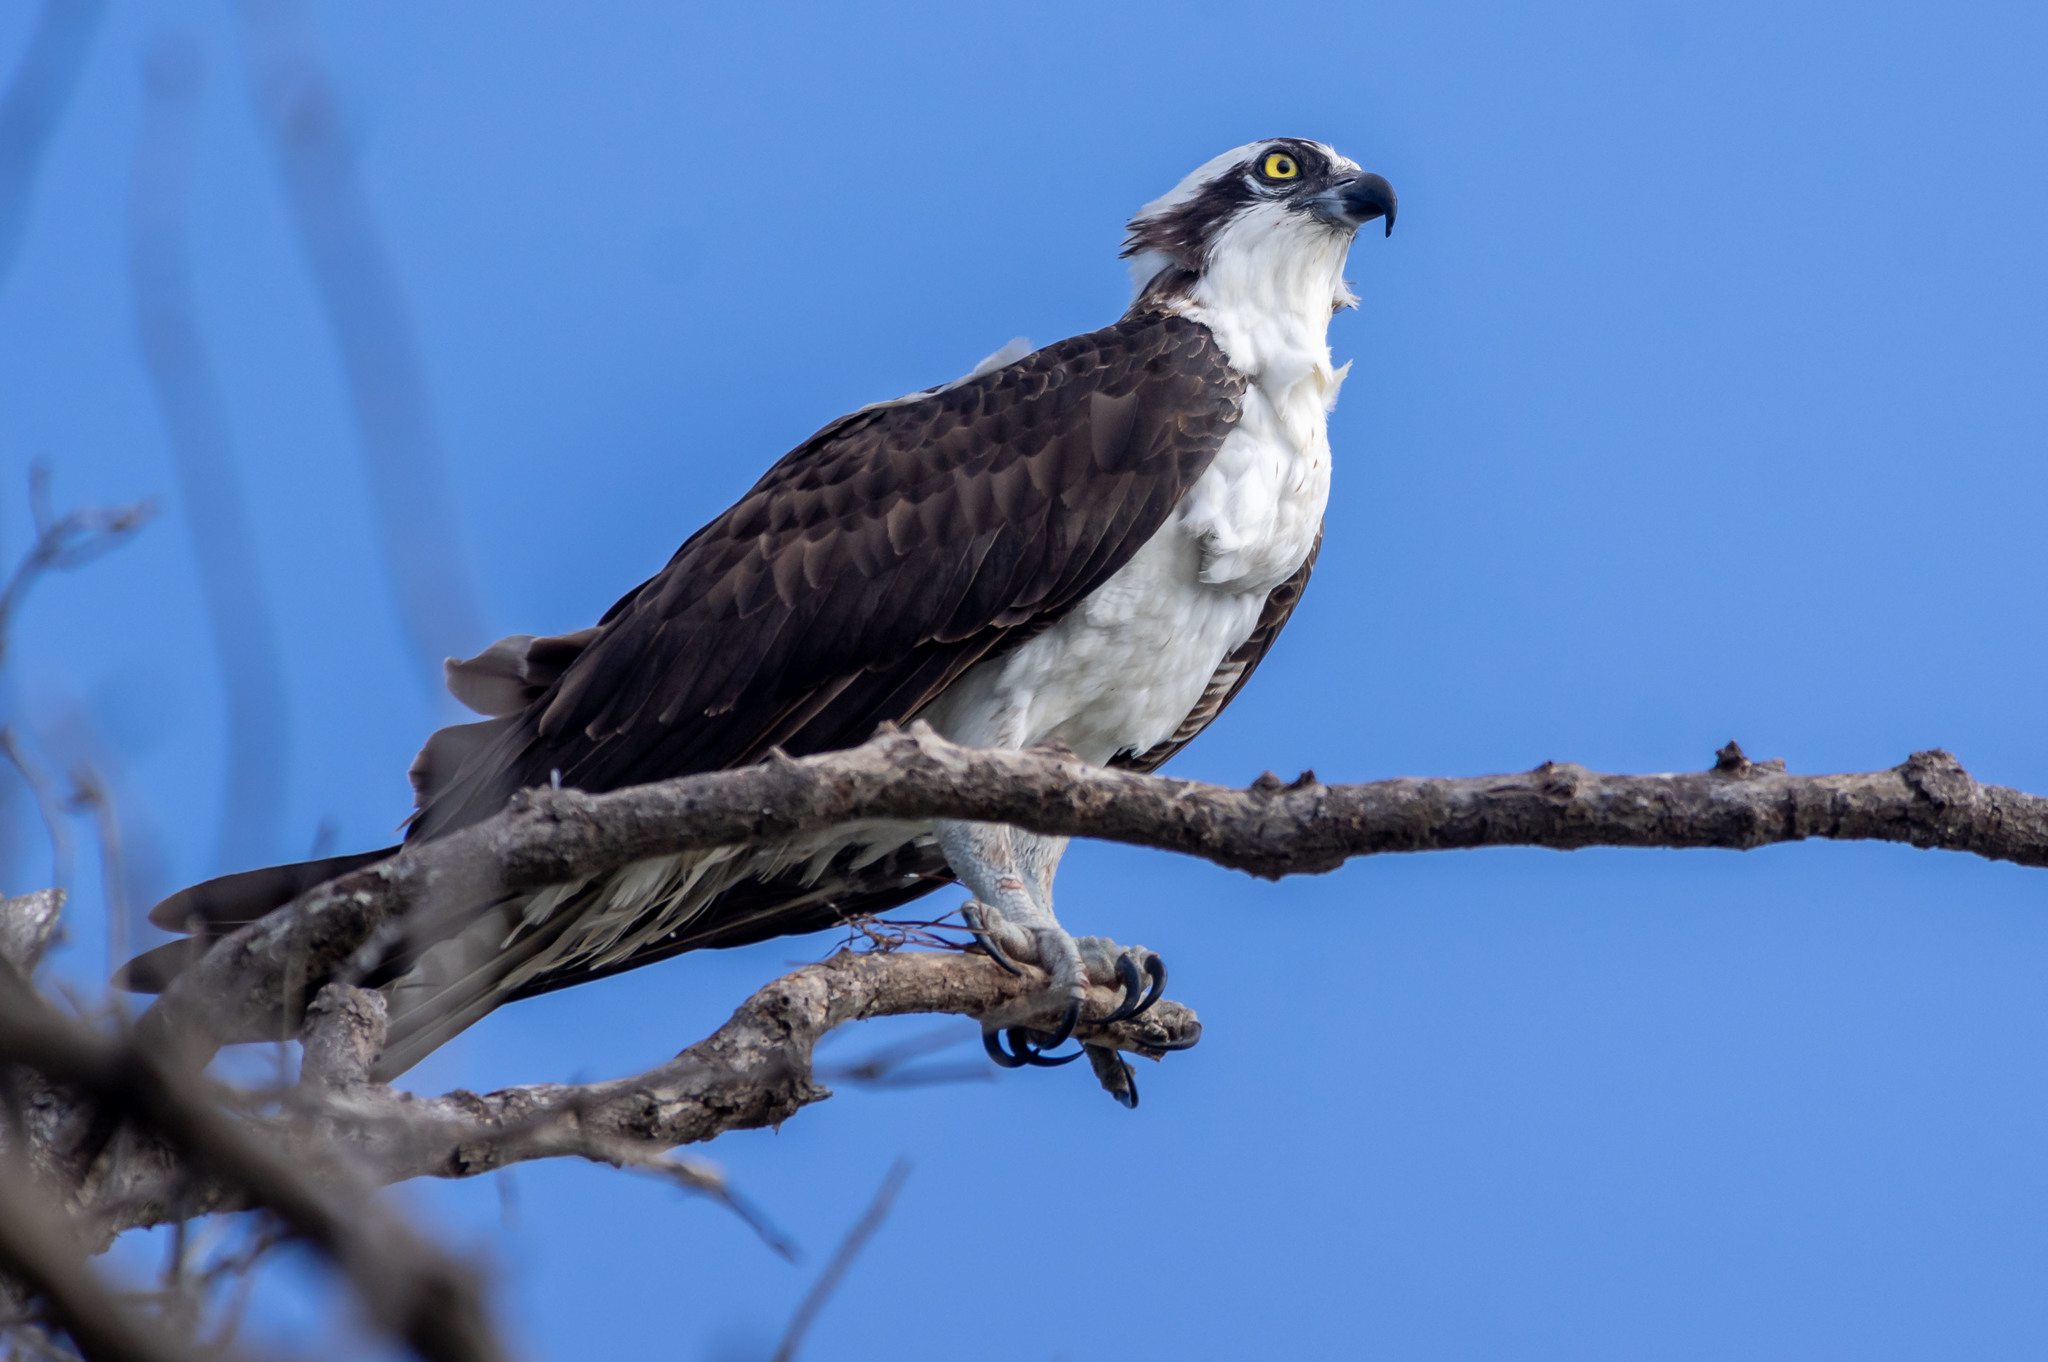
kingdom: Animalia
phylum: Chordata
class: Aves
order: Accipitriformes
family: Pandionidae
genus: Pandion
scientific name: Pandion haliaetus
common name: Osprey
